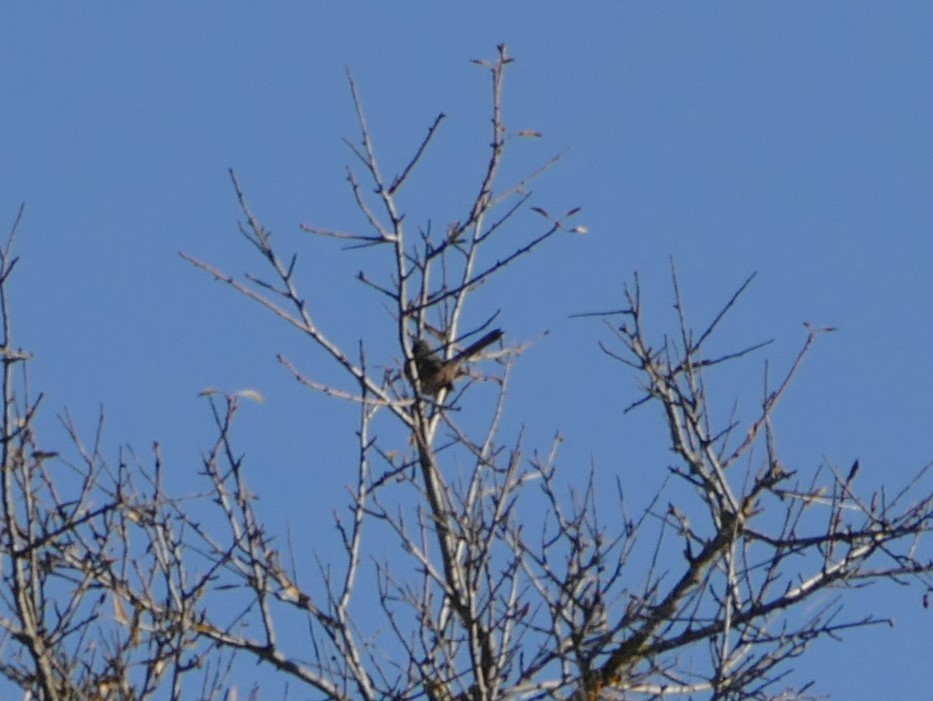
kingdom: Animalia
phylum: Chordata
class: Aves
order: Passeriformes
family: Sylviidae
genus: Sylvia
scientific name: Sylvia undata
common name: Dartford warbler
